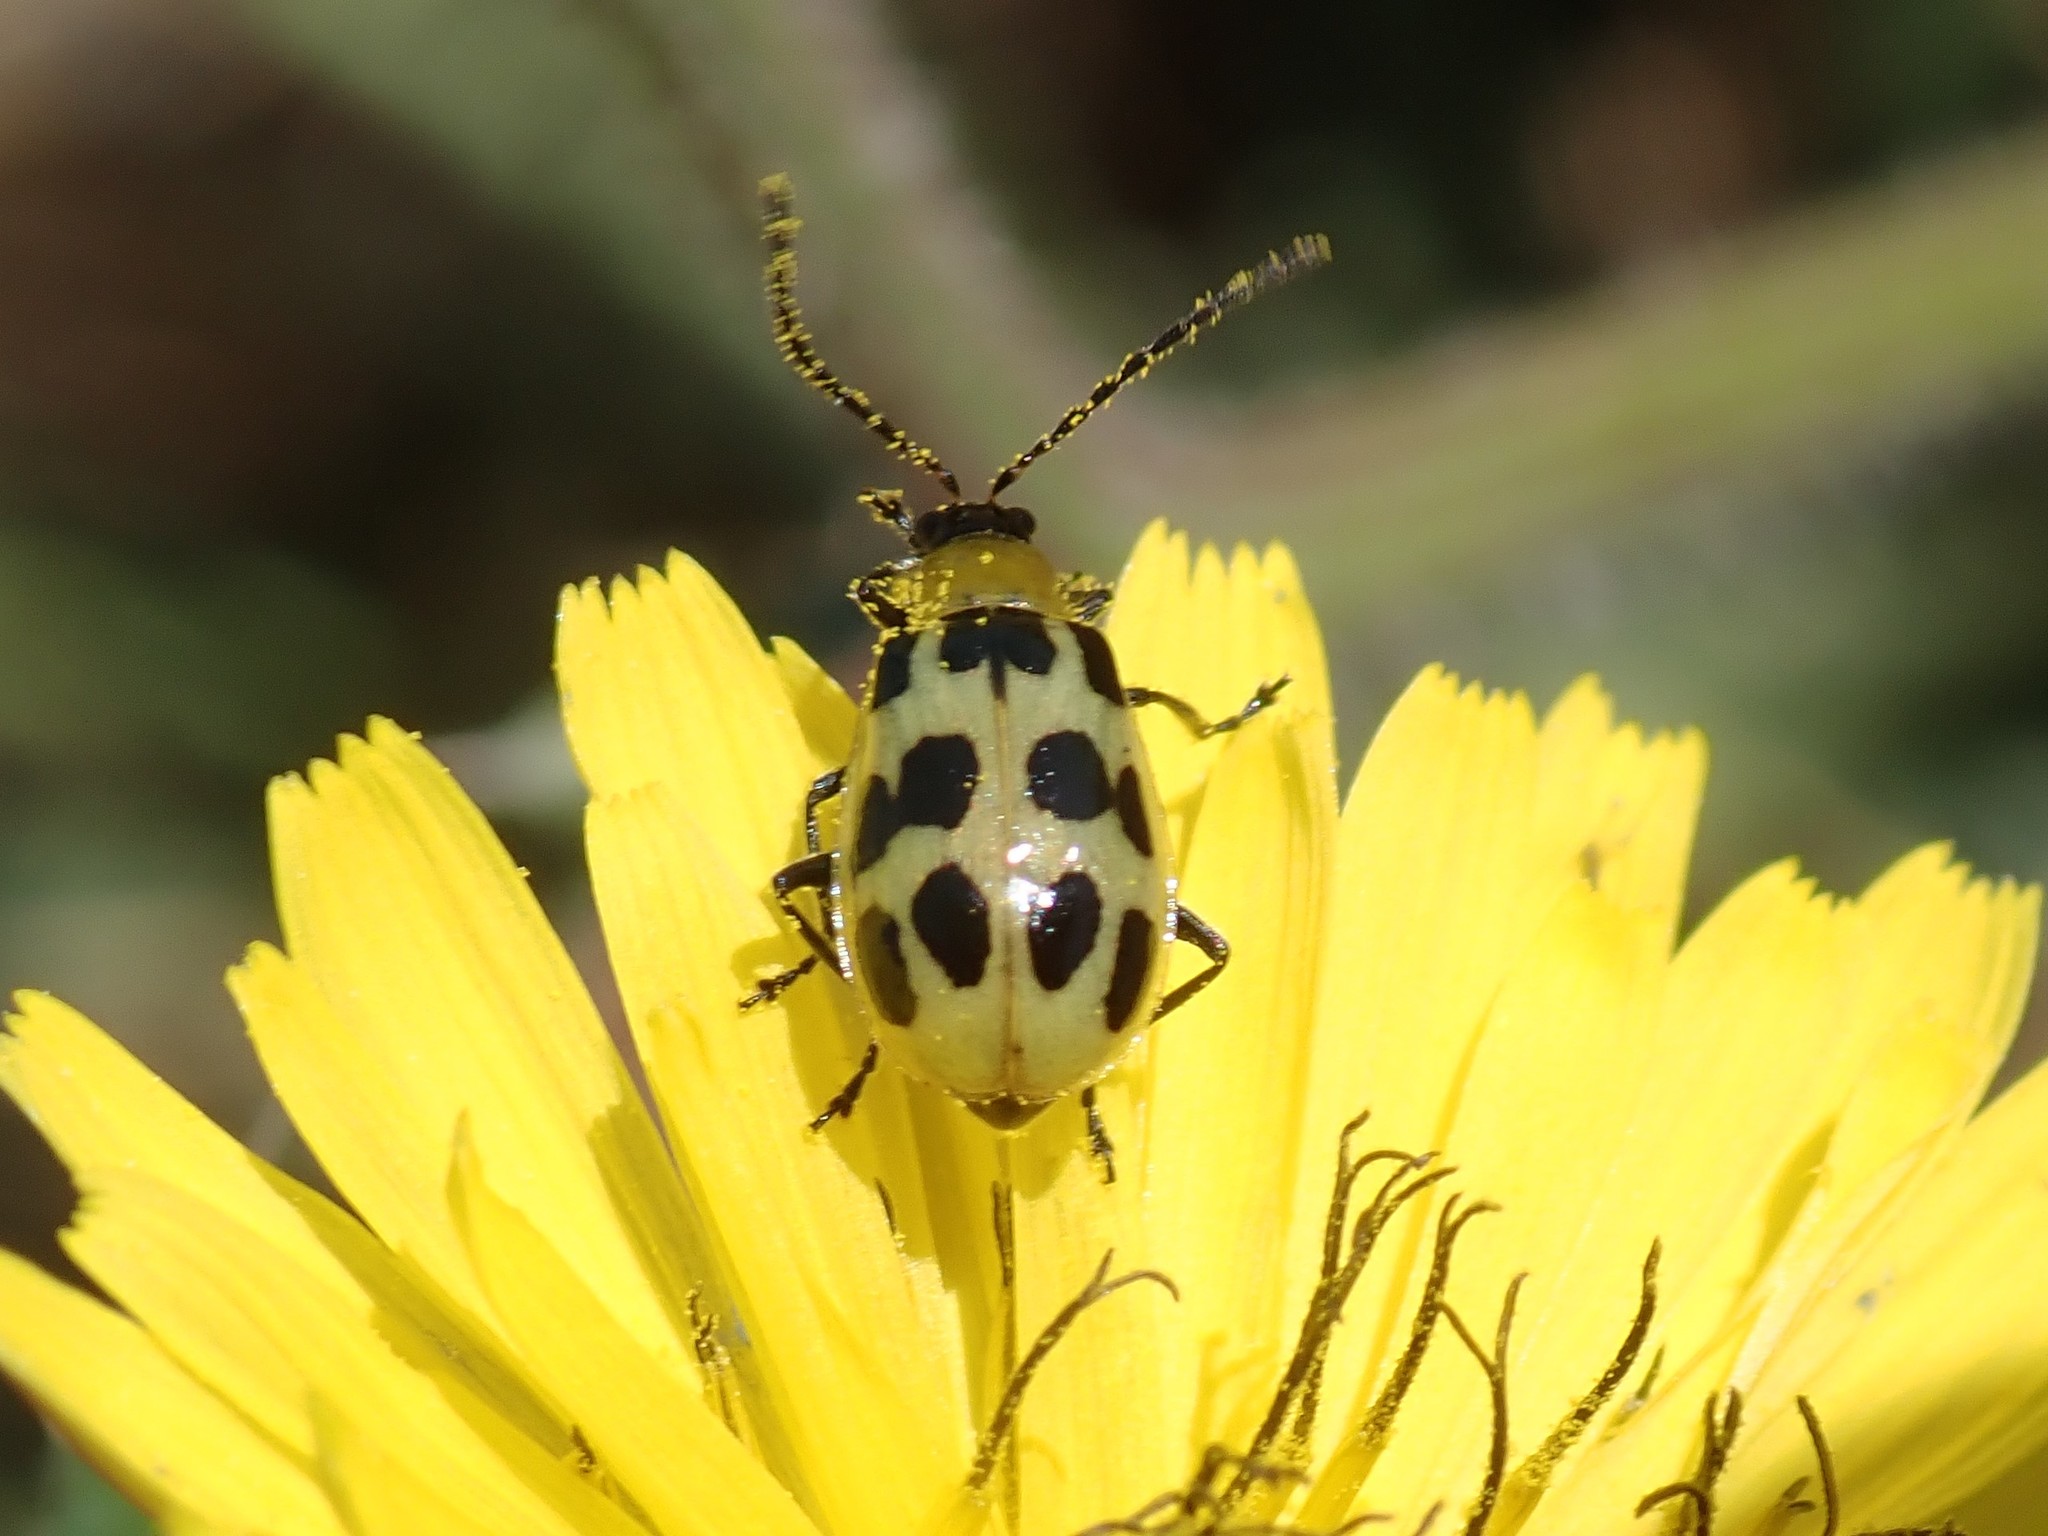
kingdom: Animalia
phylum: Arthropoda
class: Insecta
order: Coleoptera
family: Chrysomelidae
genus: Diabrotica
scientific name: Diabrotica undecimpunctata
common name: Spotted cucumber beetle
